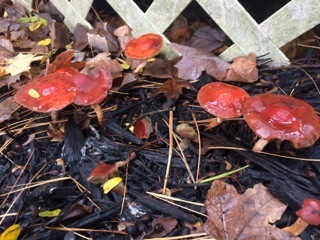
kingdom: Fungi
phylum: Basidiomycota
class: Agaricomycetes
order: Agaricales
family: Strophariaceae
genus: Leratiomyces
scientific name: Leratiomyces ceres
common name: Redlead roundhead
